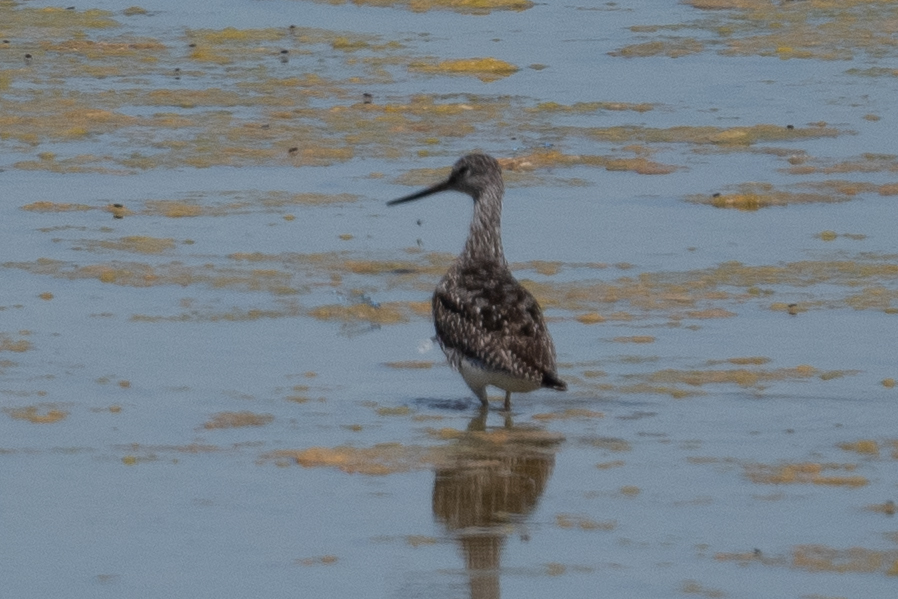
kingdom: Animalia
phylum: Chordata
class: Aves
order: Charadriiformes
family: Scolopacidae
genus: Tringa
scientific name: Tringa melanoleuca
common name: Greater yellowlegs
